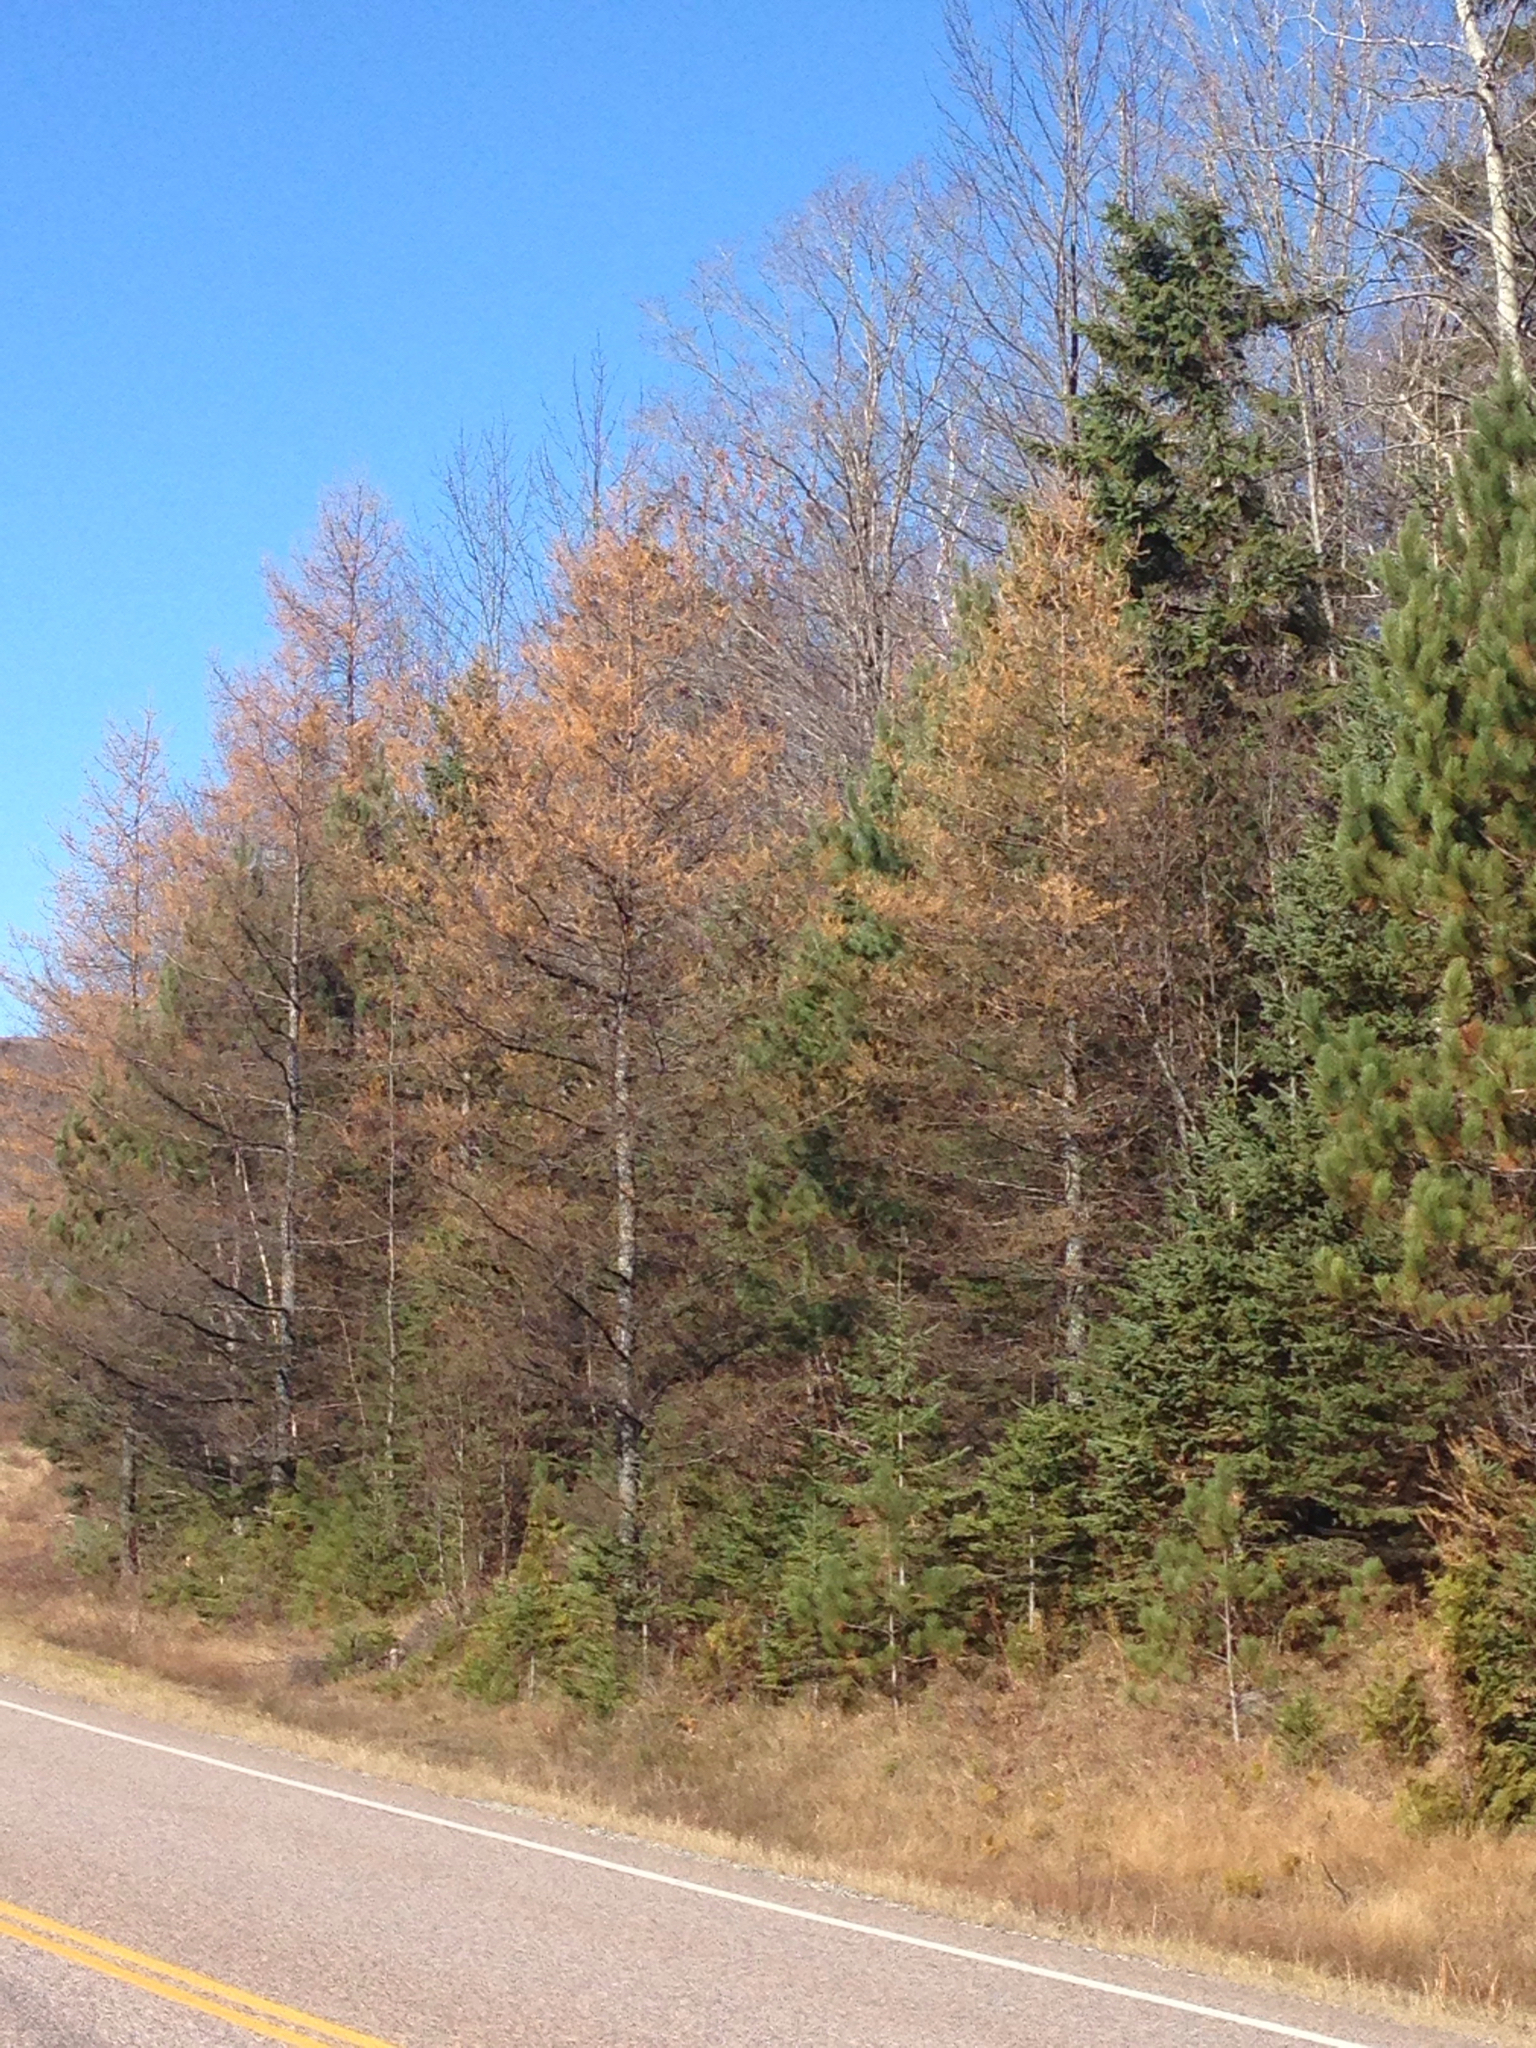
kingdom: Plantae
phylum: Tracheophyta
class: Pinopsida
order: Pinales
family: Pinaceae
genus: Larix
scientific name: Larix laricina
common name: American larch
